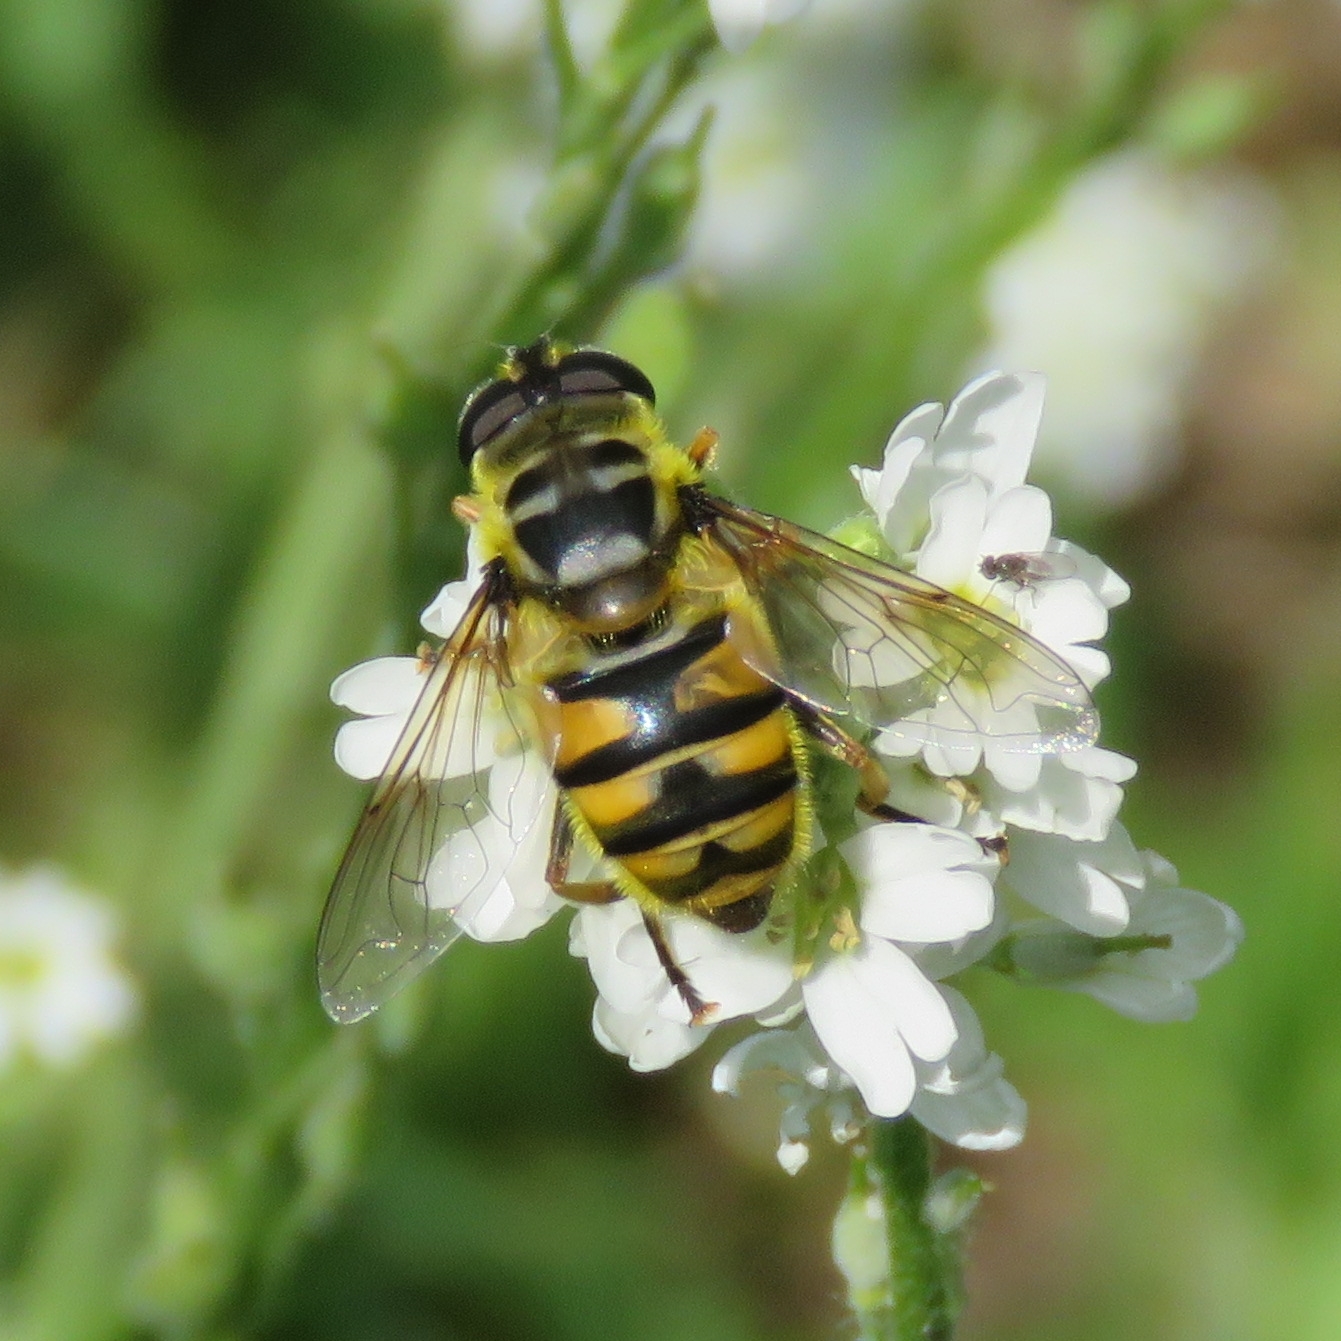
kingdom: Animalia
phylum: Arthropoda
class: Insecta
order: Diptera
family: Syrphidae
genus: Myathropa
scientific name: Myathropa florea
